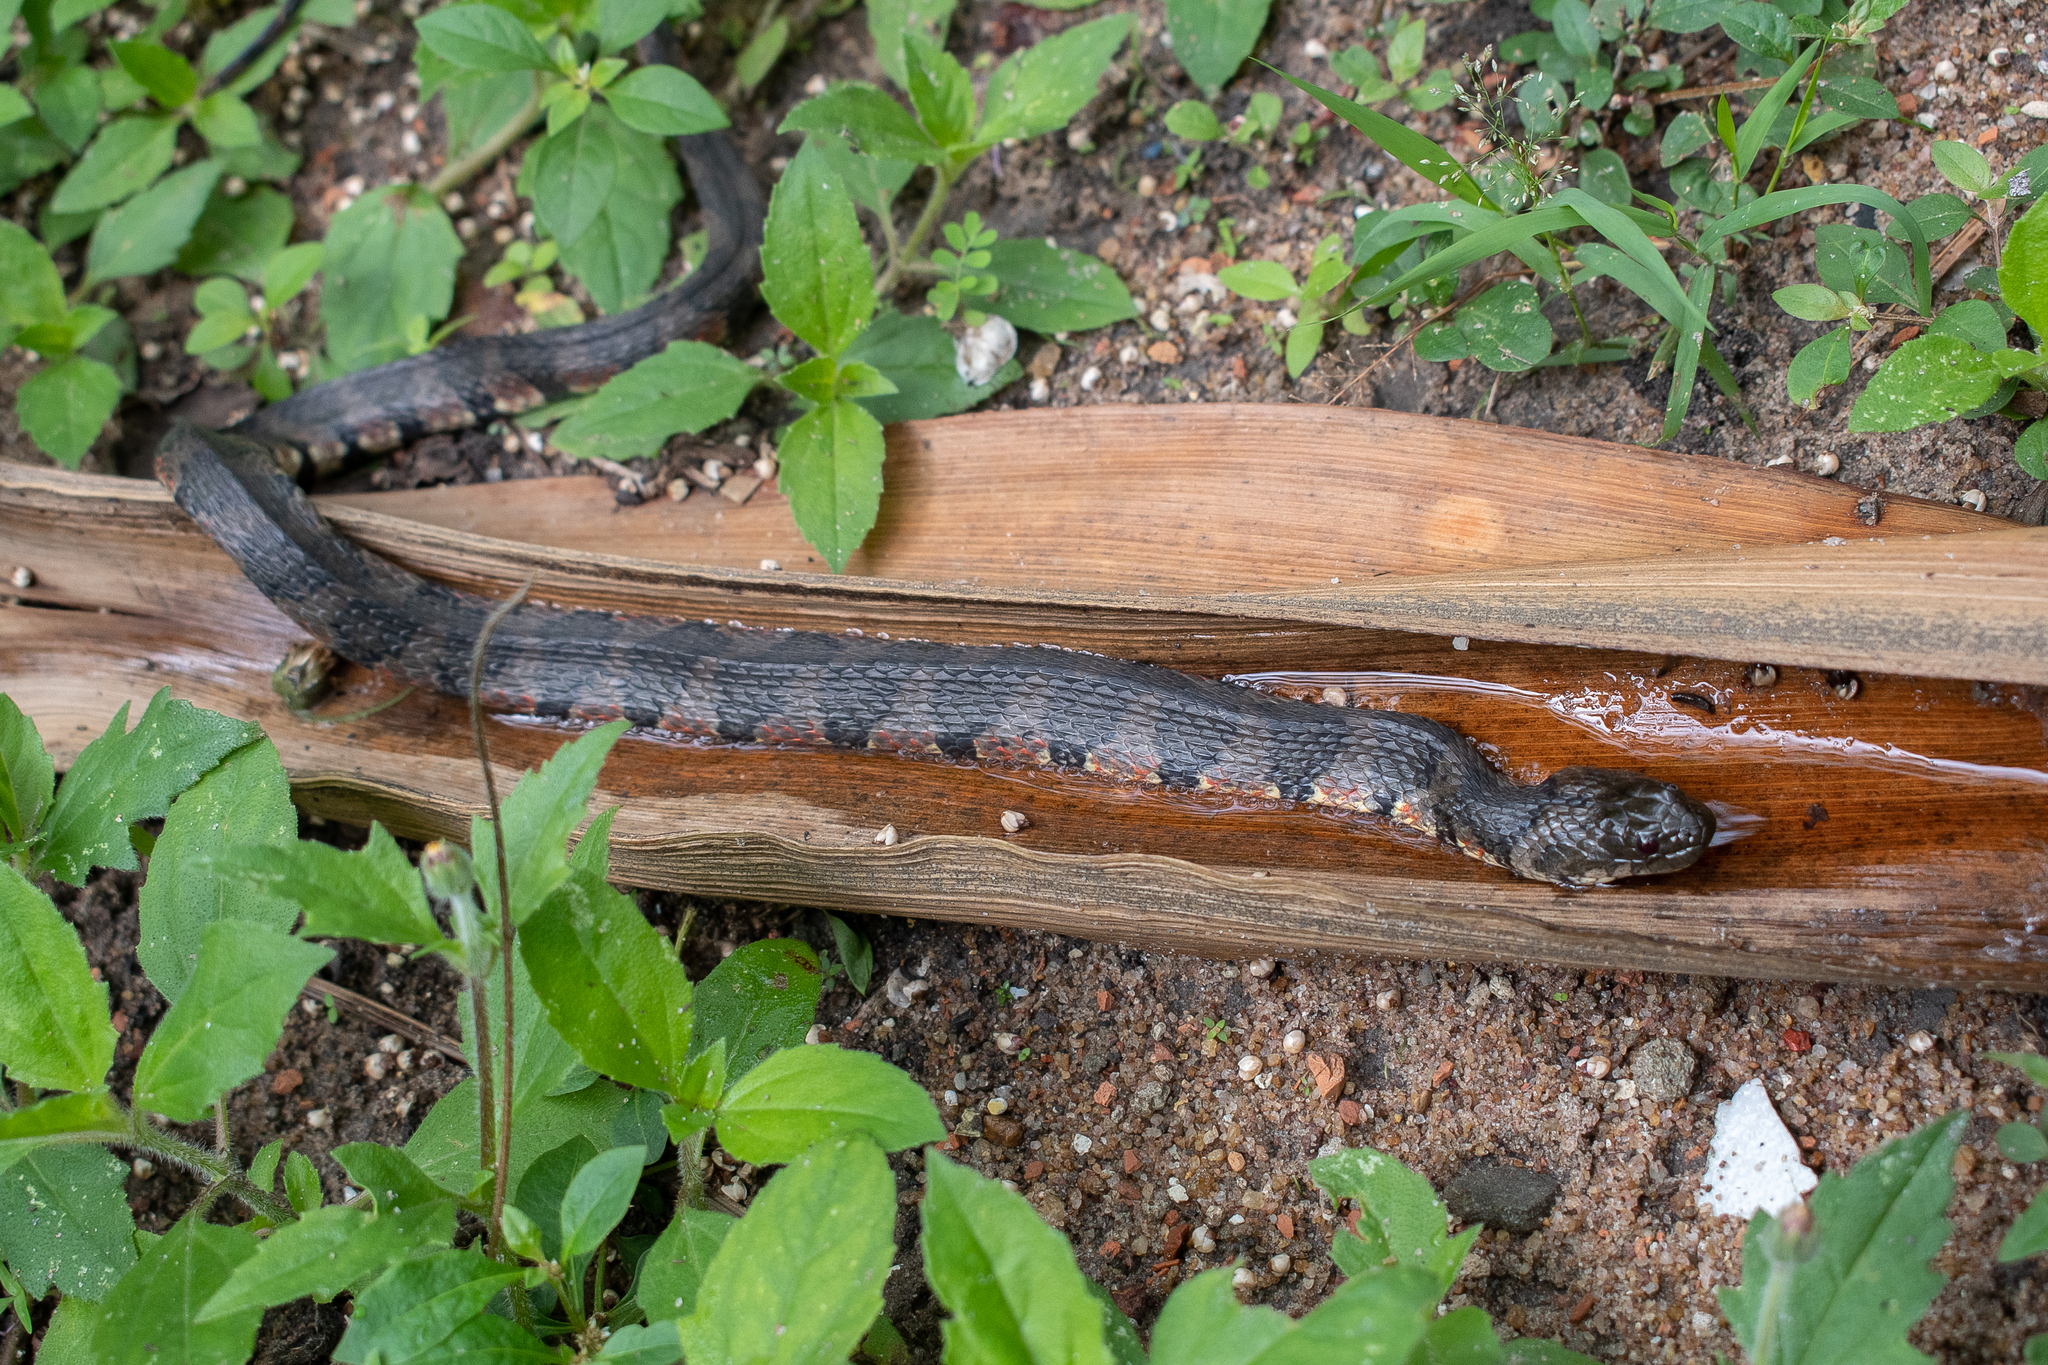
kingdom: Animalia
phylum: Chordata
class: Squamata
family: Colubridae
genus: Helicops
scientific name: Helicops angulatus
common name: Mountain keelback
